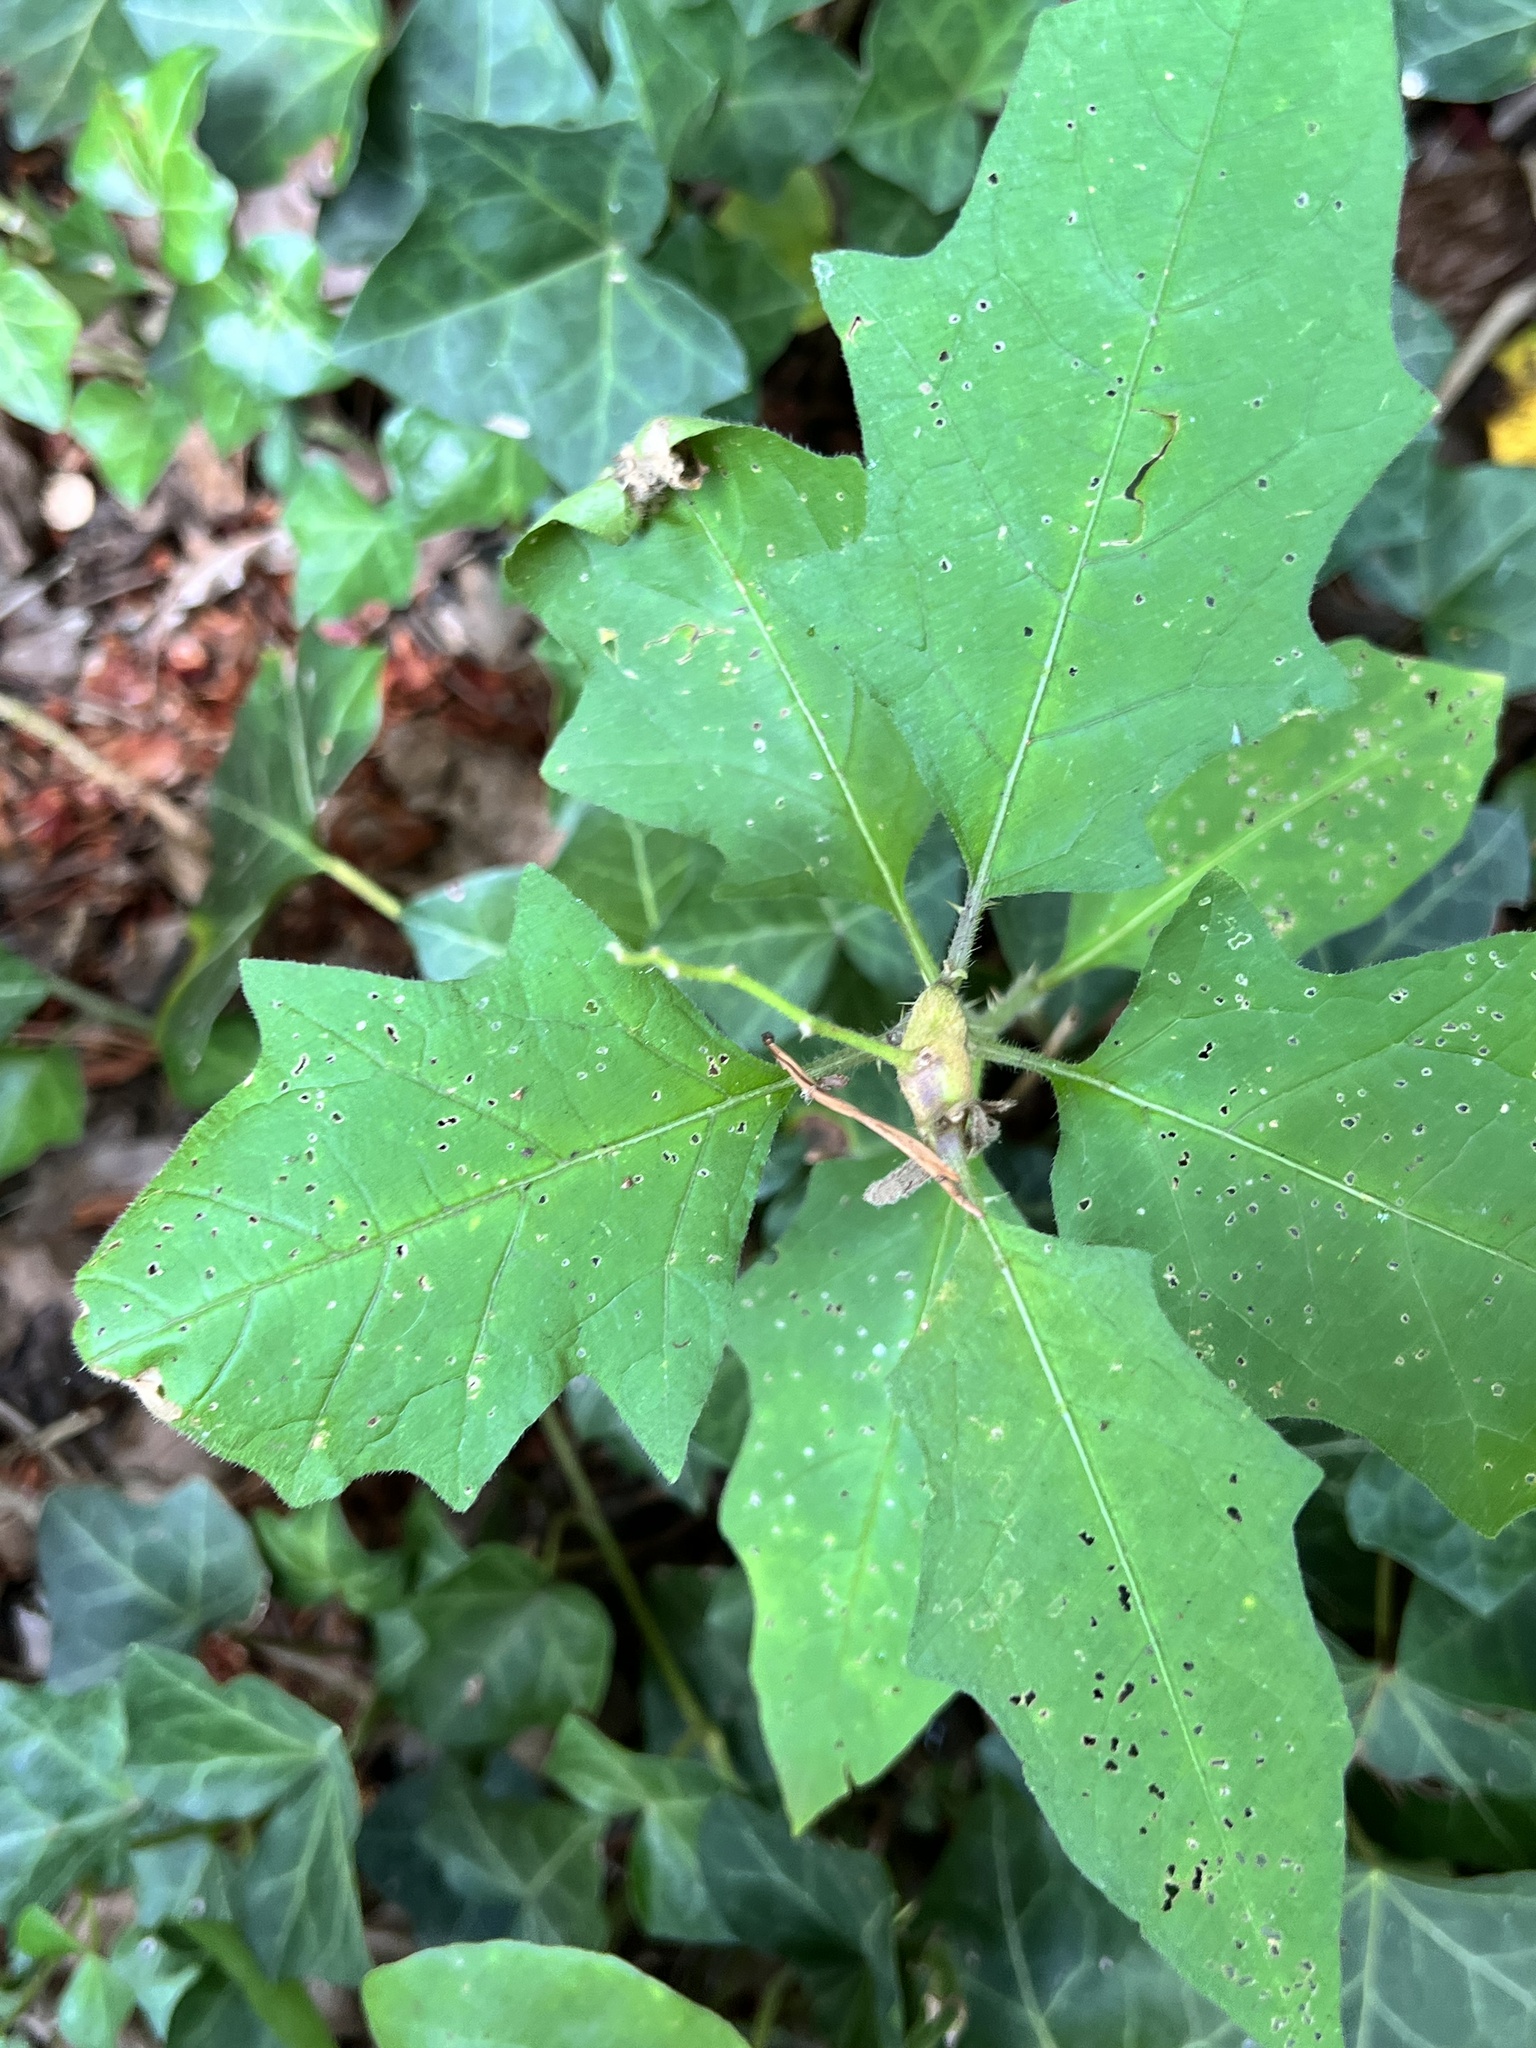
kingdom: Animalia
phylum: Arthropoda
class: Insecta
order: Diptera
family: Cecidomyiidae
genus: Lasioptera
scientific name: Lasioptera solani
